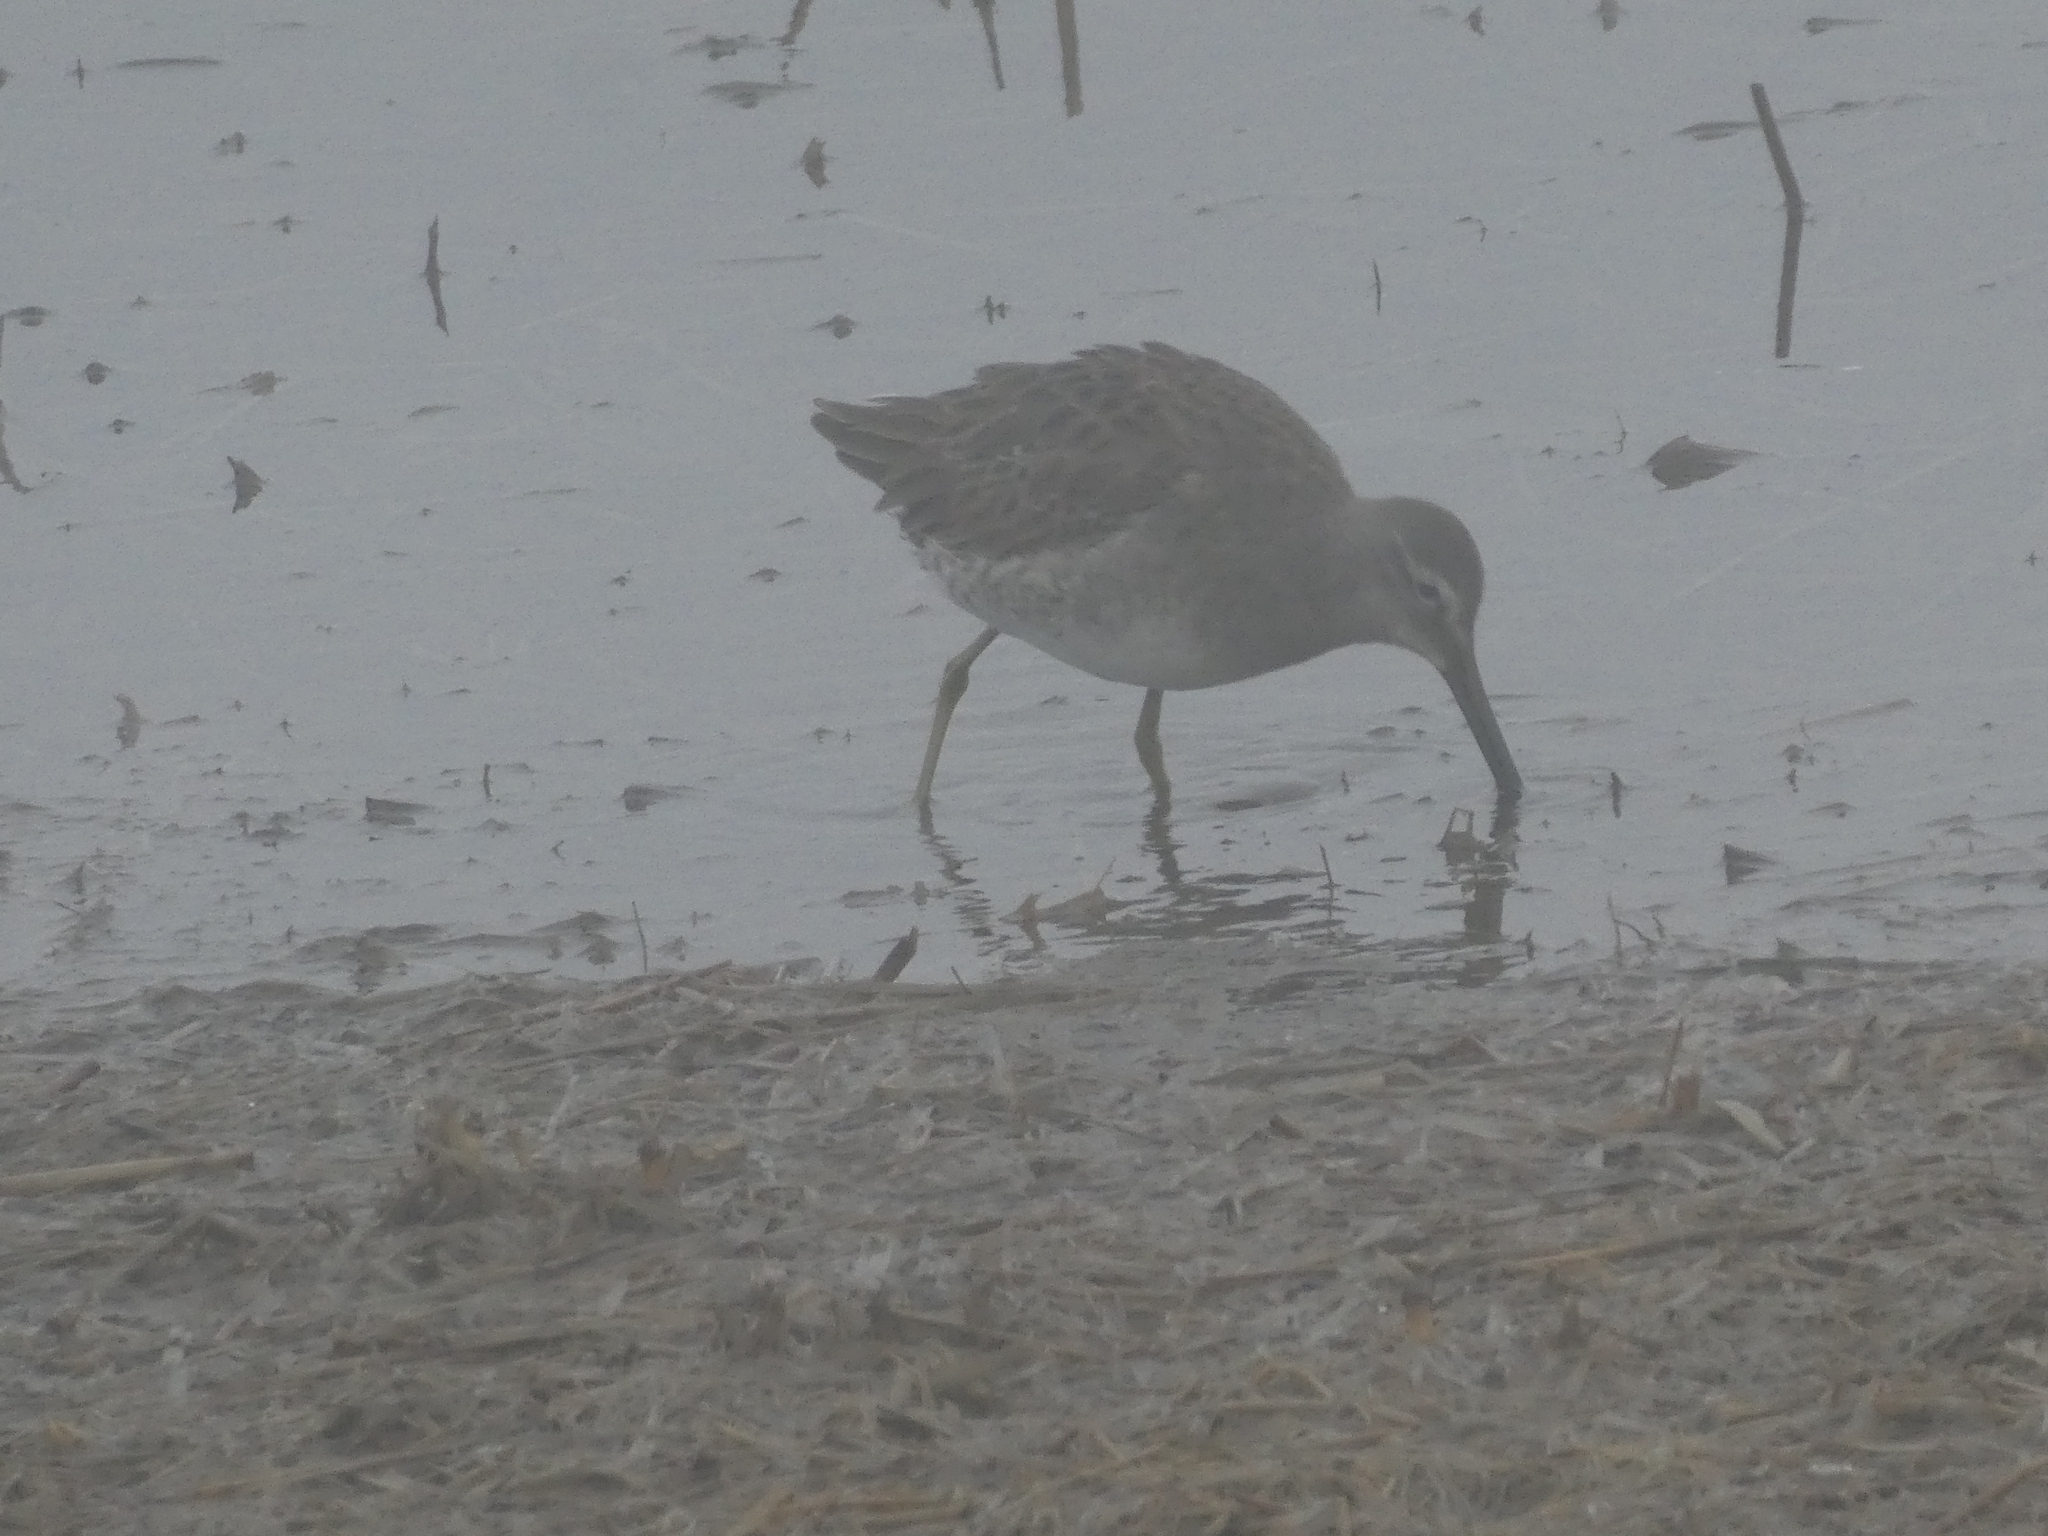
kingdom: Animalia
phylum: Chordata
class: Aves
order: Charadriiformes
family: Scolopacidae
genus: Limnodromus
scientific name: Limnodromus scolopaceus
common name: Long-billed dowitcher
